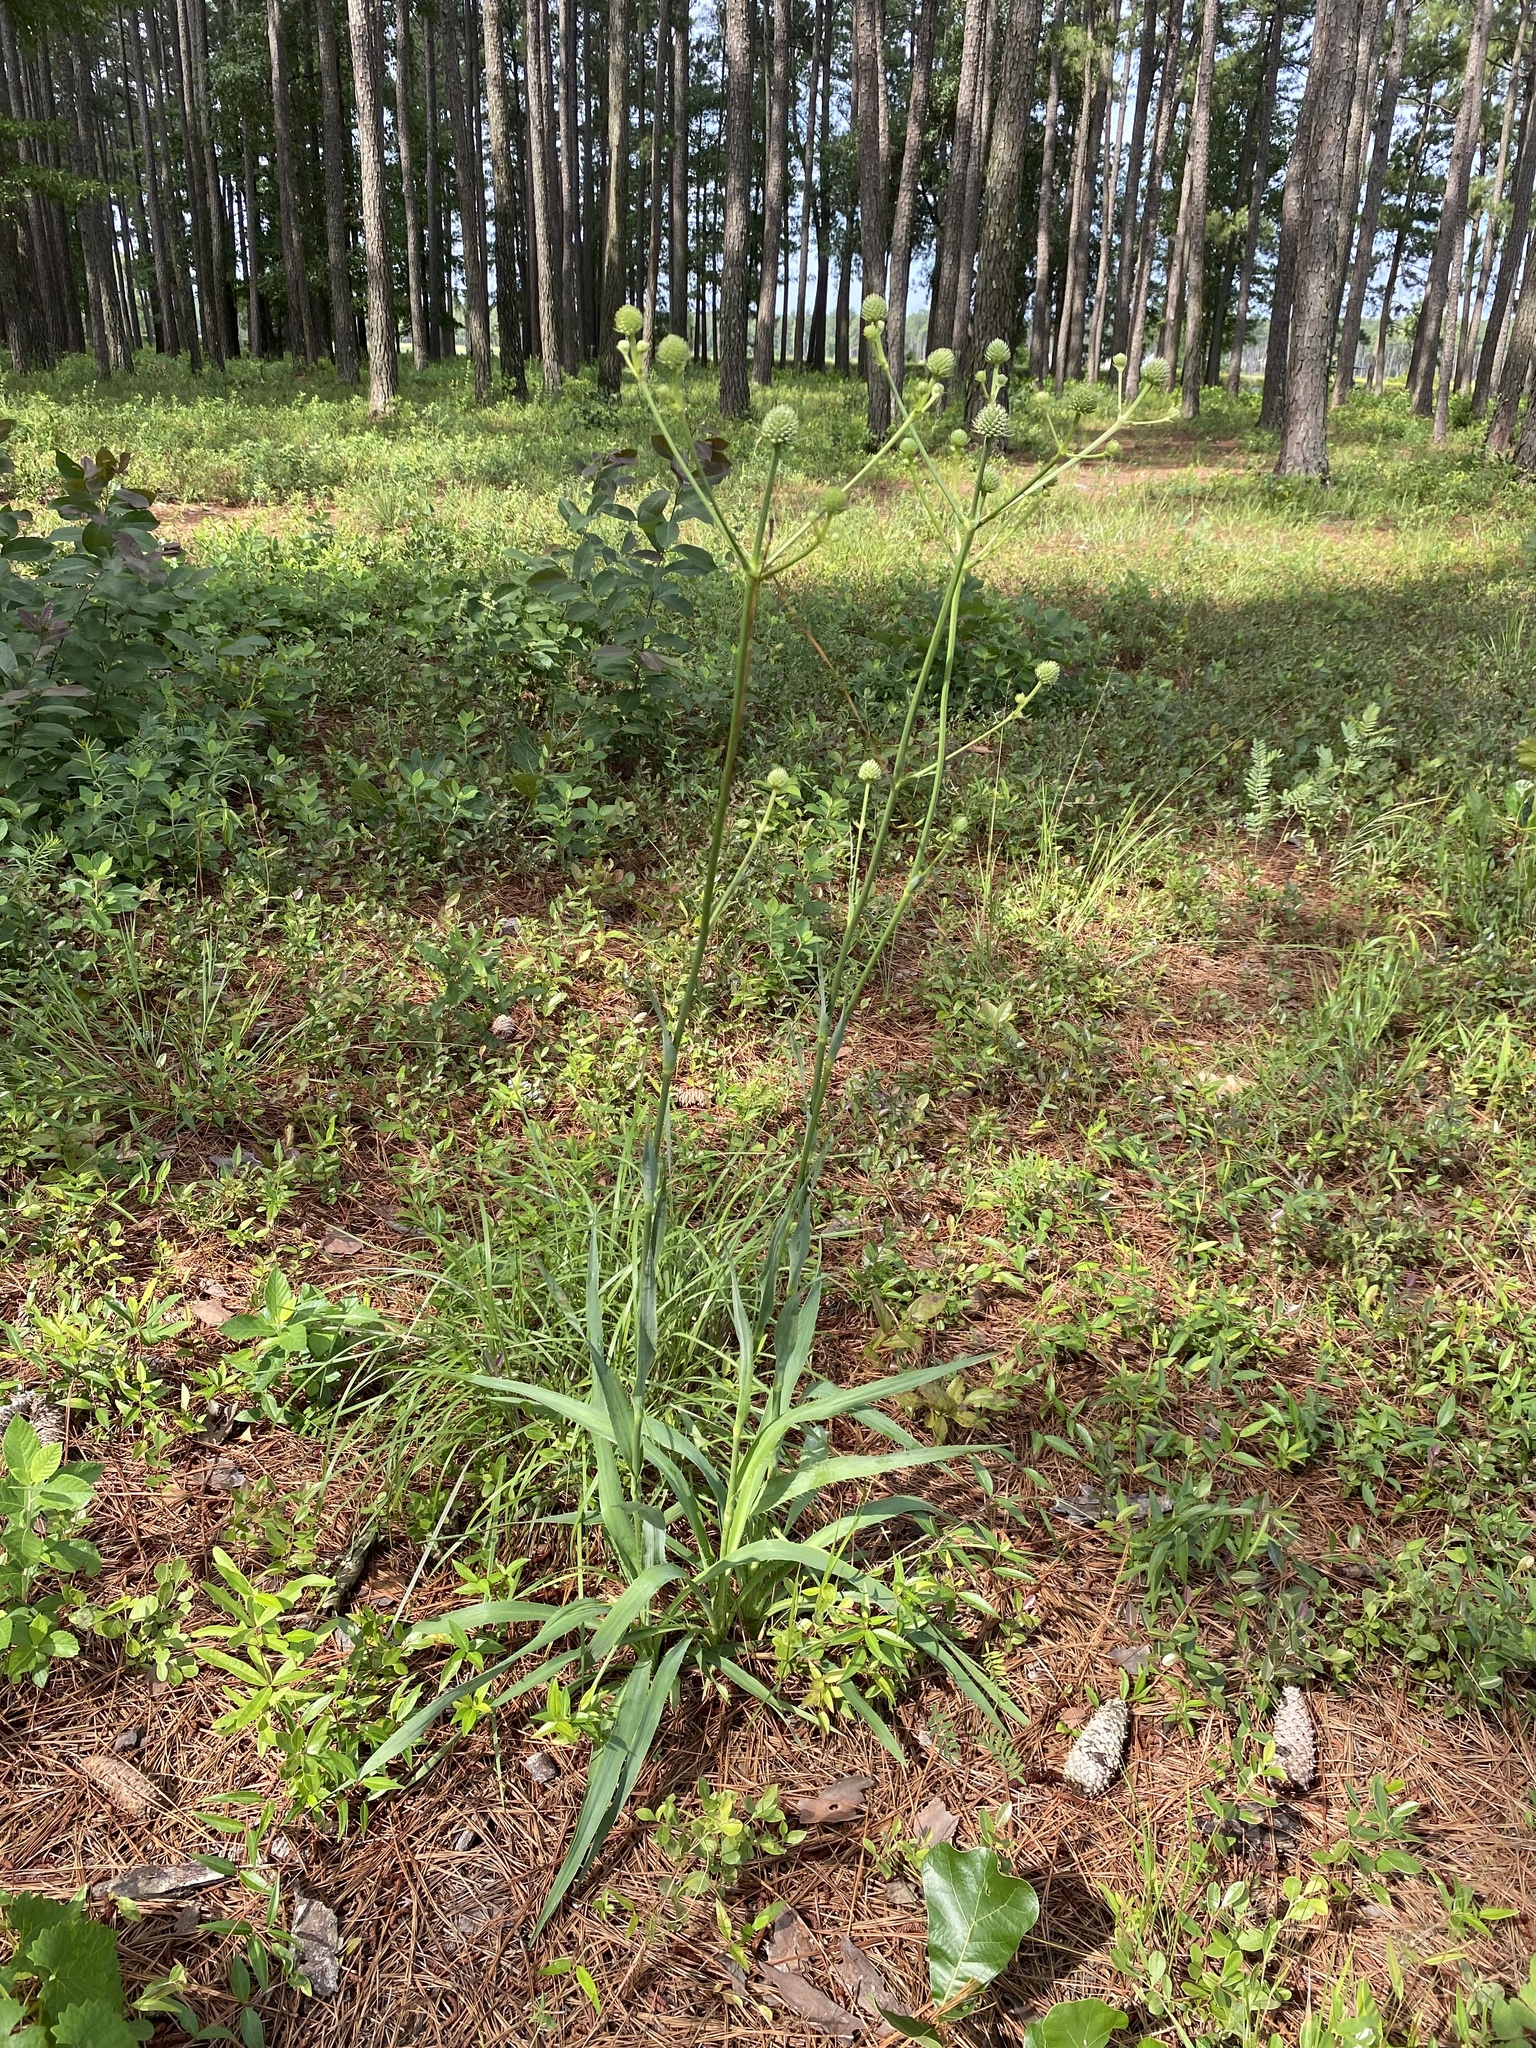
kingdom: Plantae
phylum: Tracheophyta
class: Magnoliopsida
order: Apiales
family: Apiaceae
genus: Eryngium
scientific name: Eryngium yuccifolium
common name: Button eryngo
